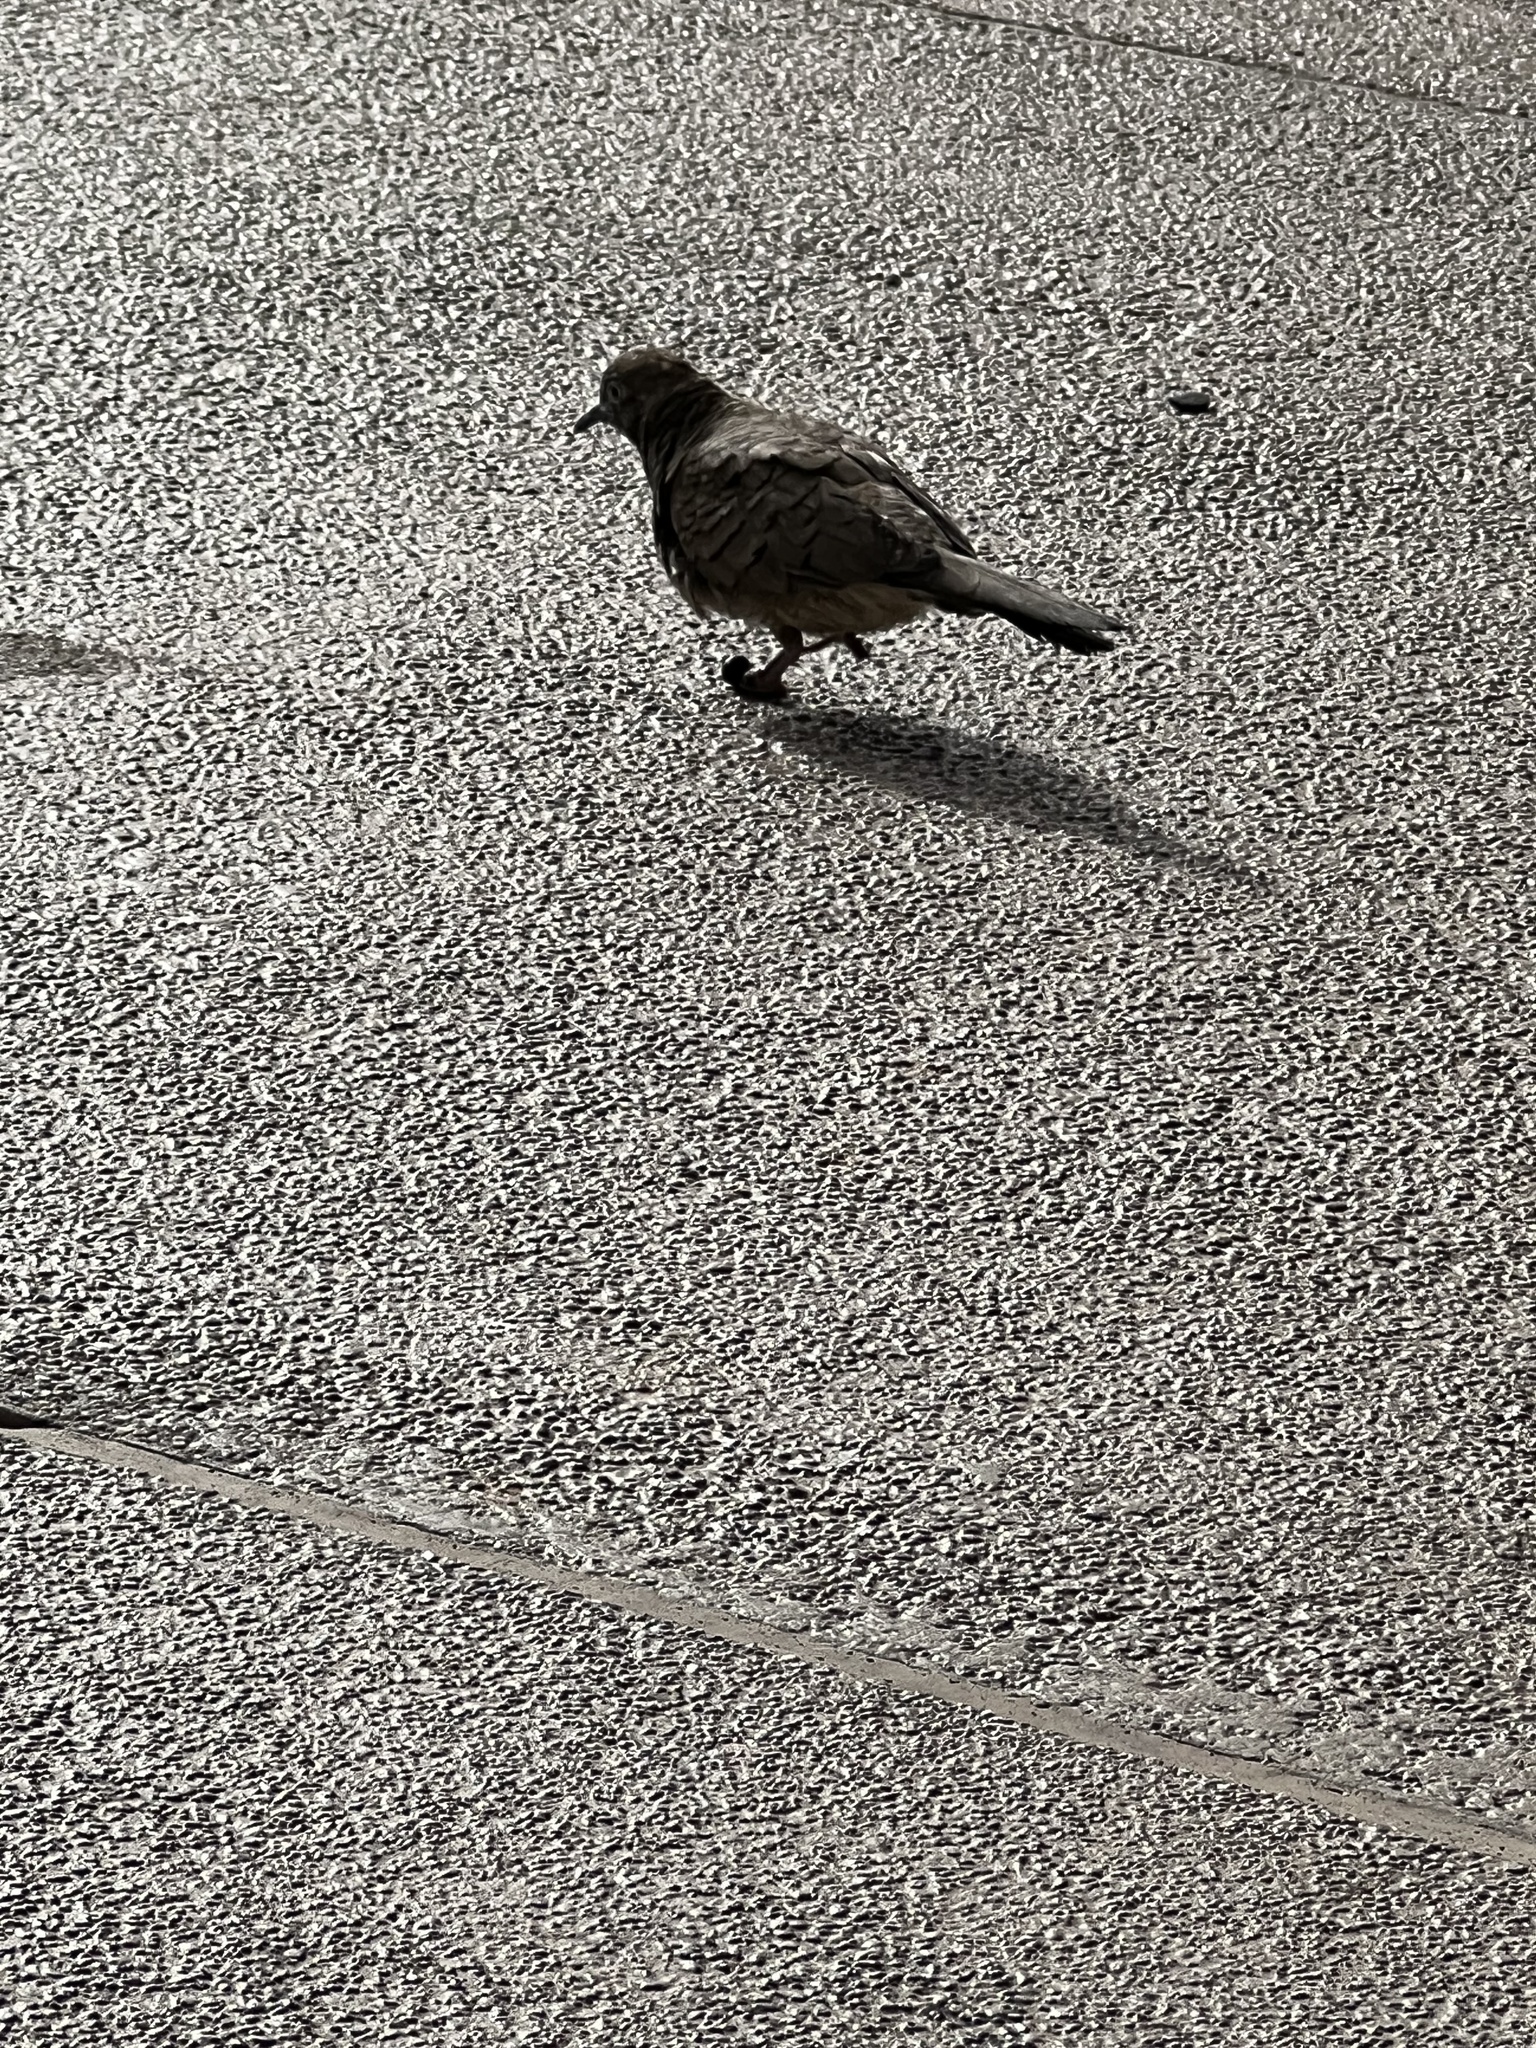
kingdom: Animalia
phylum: Chordata
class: Aves
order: Columbiformes
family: Columbidae
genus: Geopelia
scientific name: Geopelia striata
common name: Zebra dove
